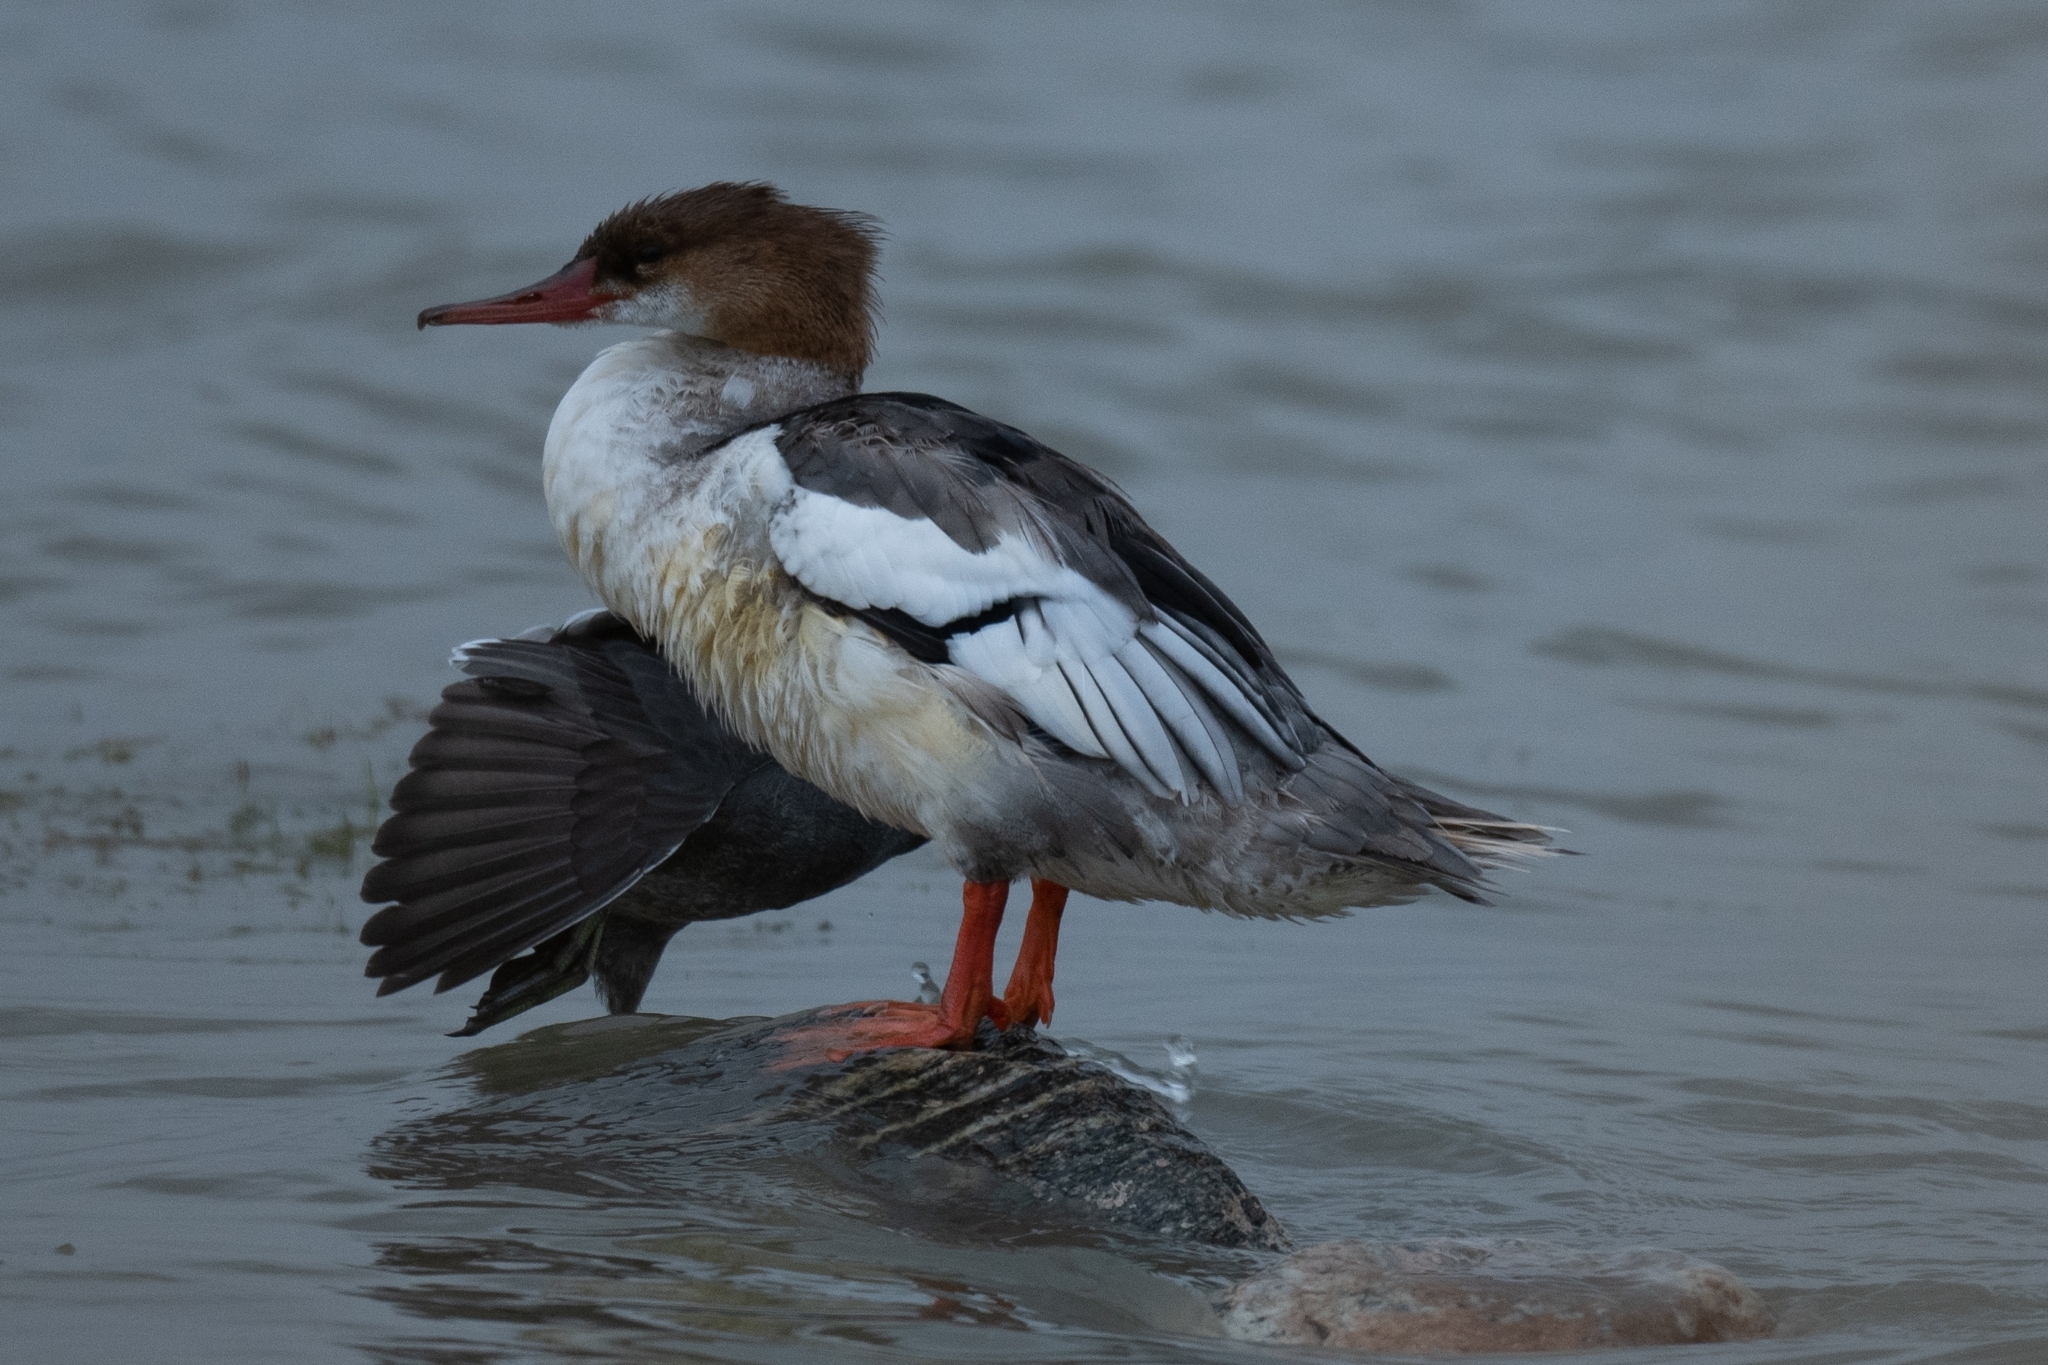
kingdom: Animalia
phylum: Chordata
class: Aves
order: Anseriformes
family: Anatidae
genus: Mergus
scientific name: Mergus merganser
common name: Common merganser
